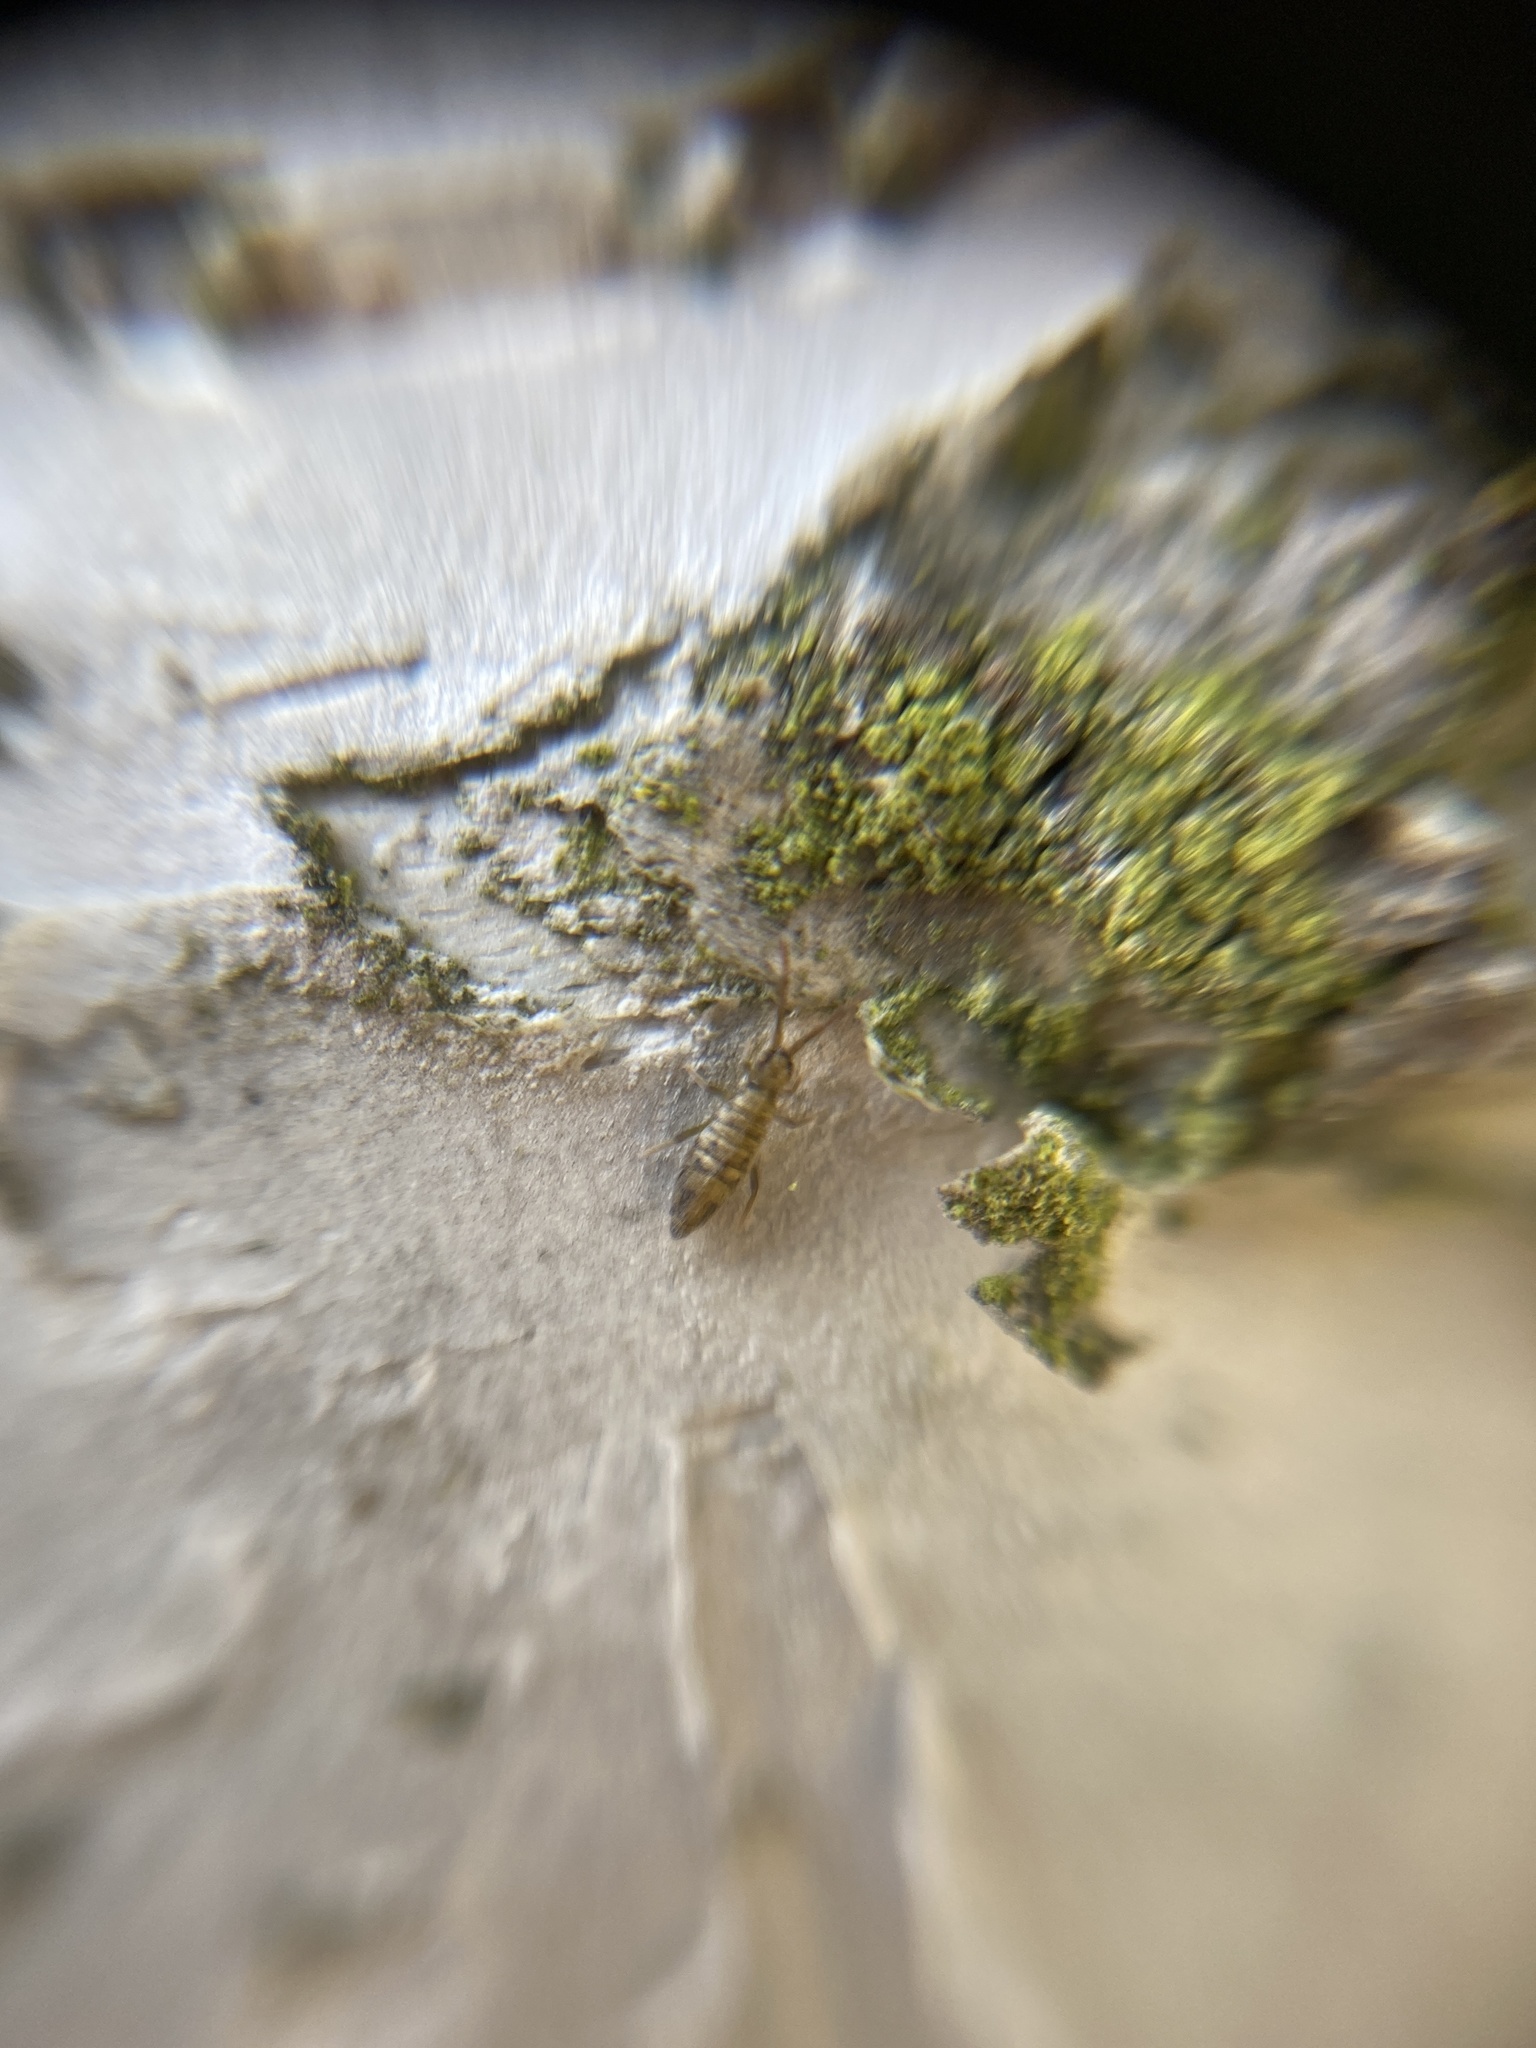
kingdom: Animalia
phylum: Arthropoda
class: Collembola
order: Entomobryomorpha
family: Entomobryidae
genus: Entomobrya
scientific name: Entomobrya nivalis
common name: Cosmopolitan springtail
